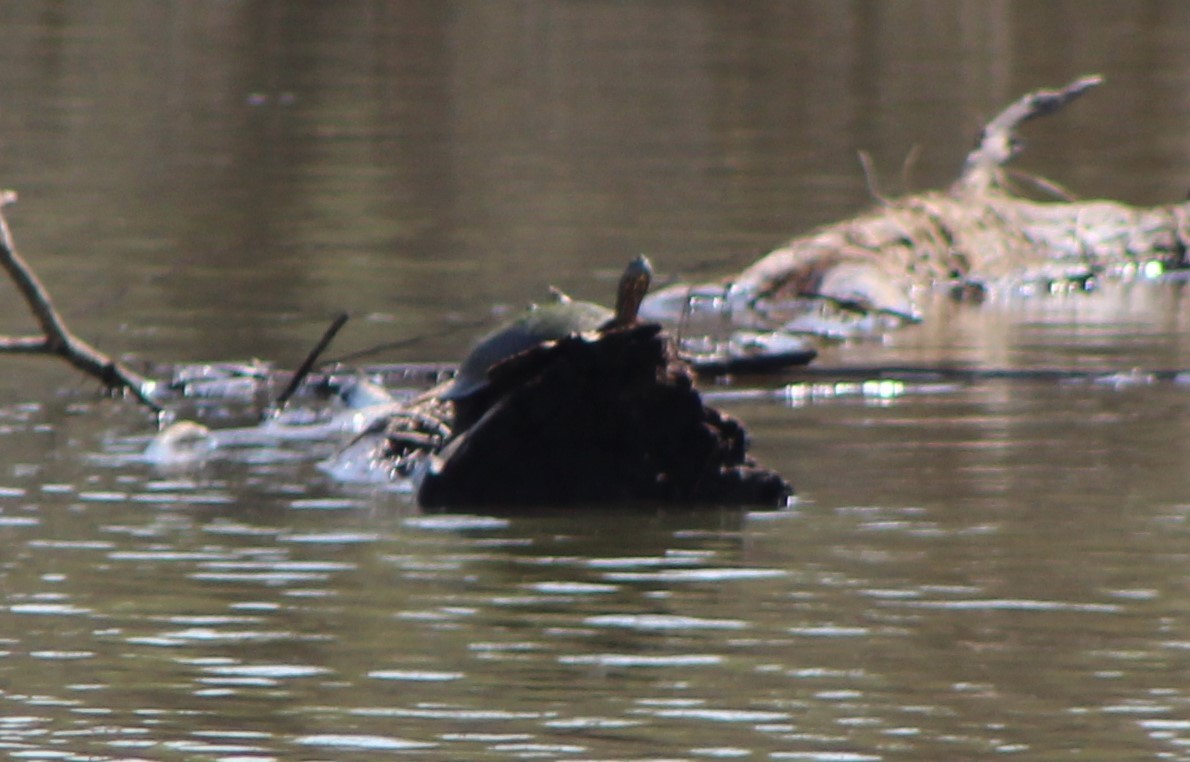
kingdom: Animalia
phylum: Chordata
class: Testudines
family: Emydidae
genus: Pseudemys
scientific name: Pseudemys
